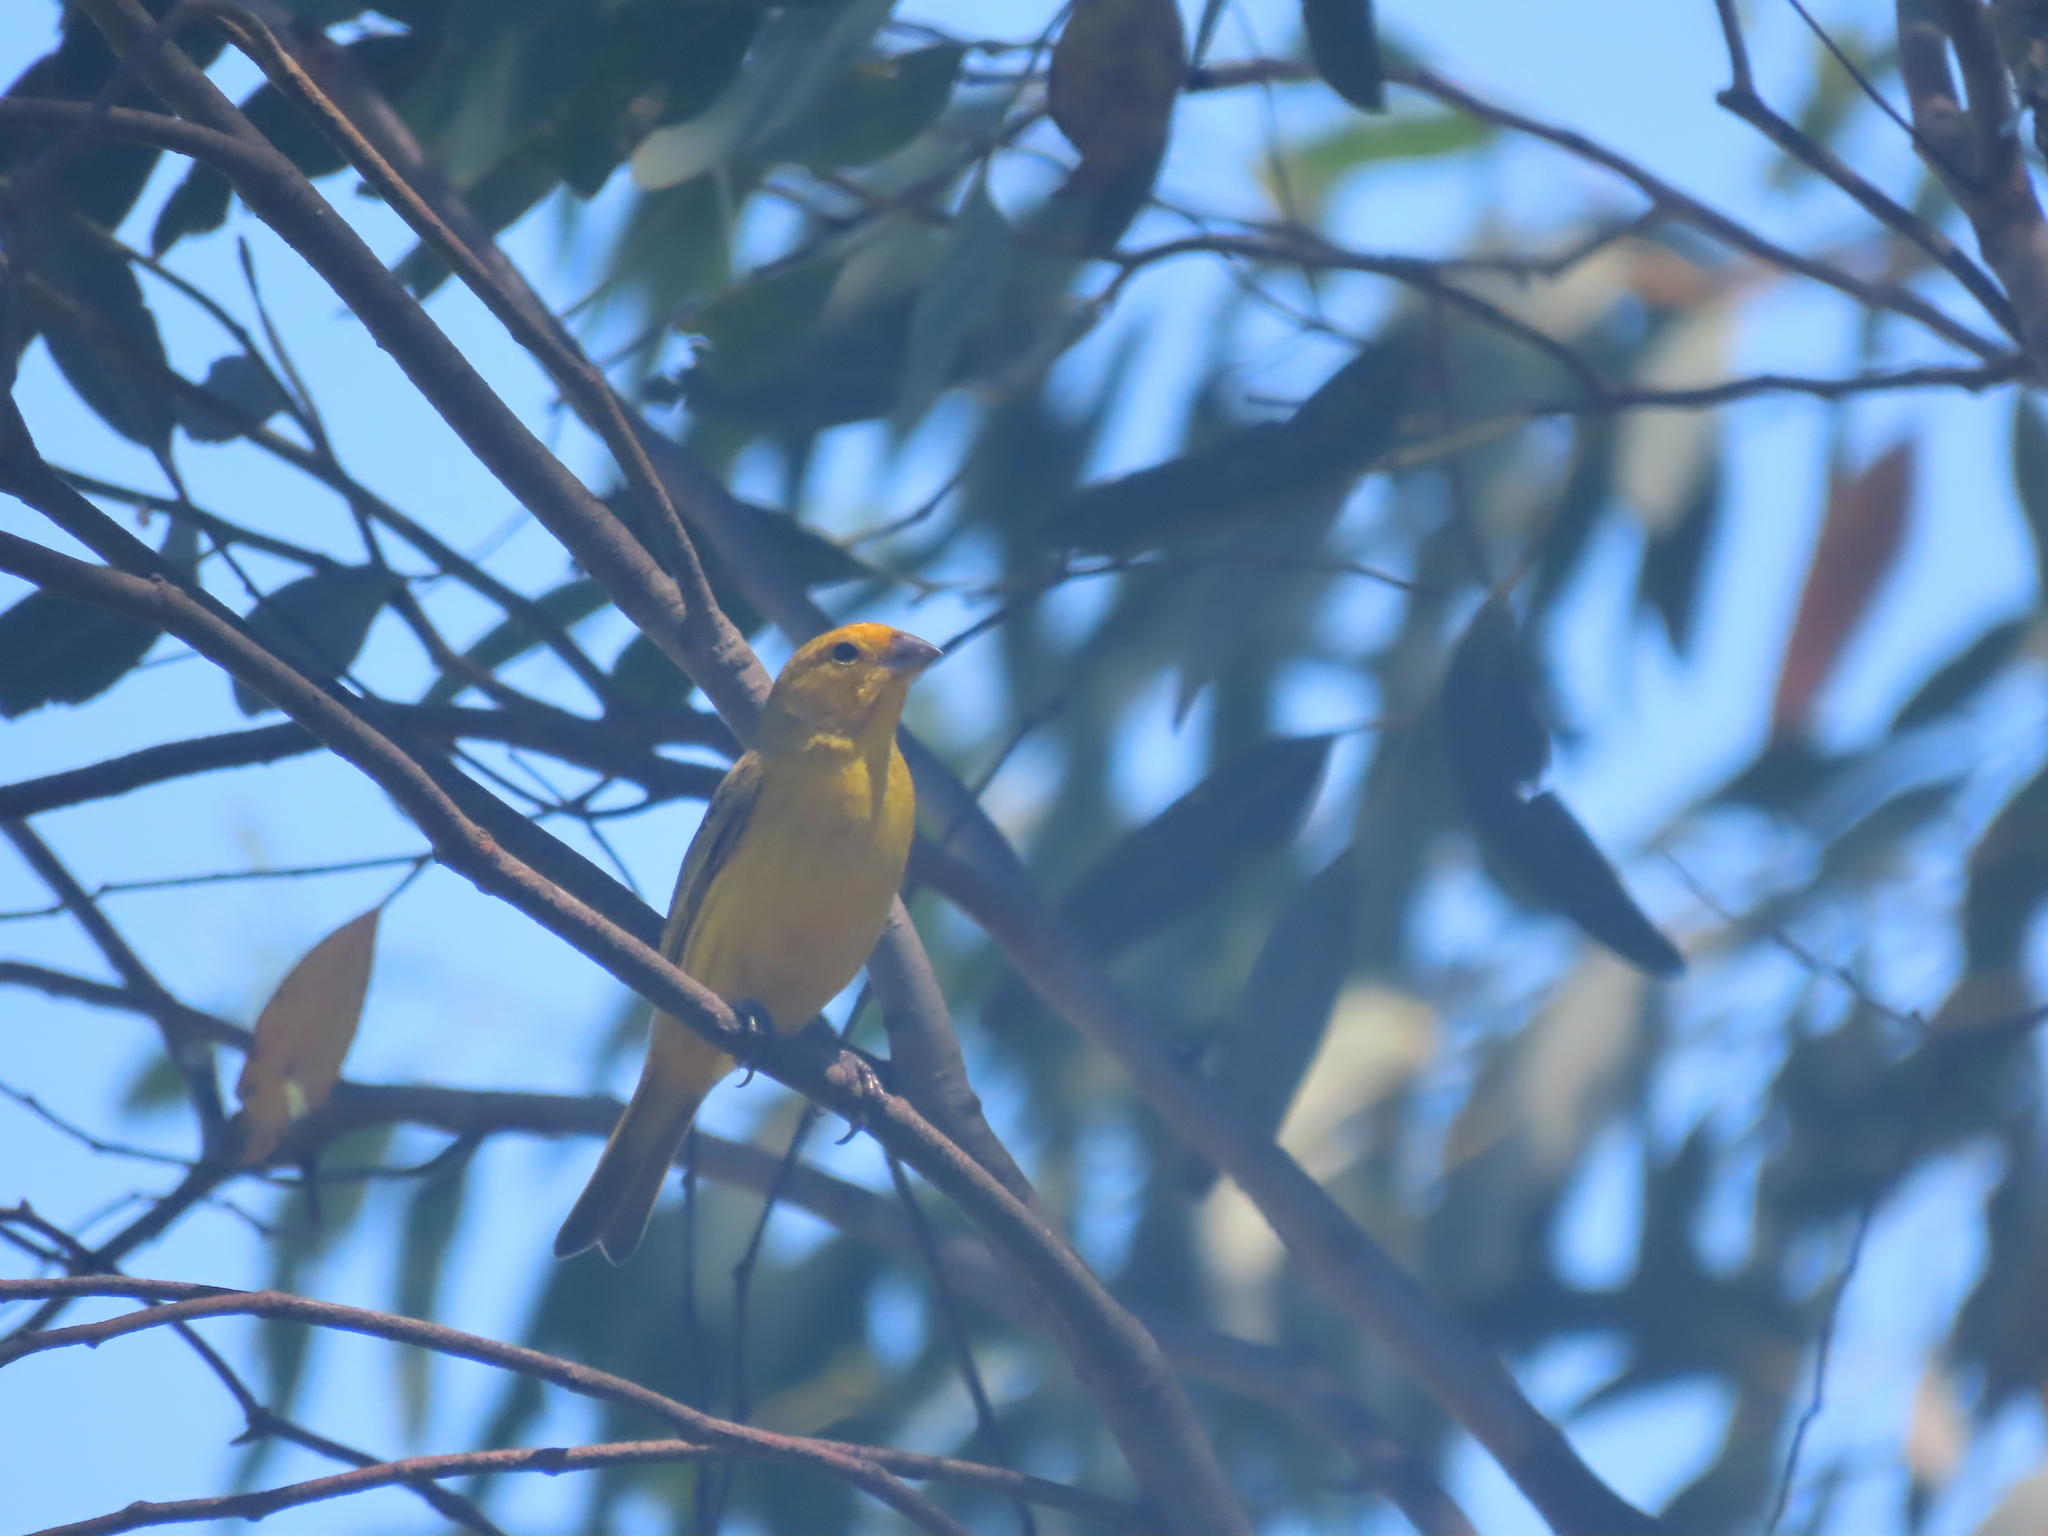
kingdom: Animalia
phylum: Chordata
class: Aves
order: Passeriformes
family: Thraupidae
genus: Sicalis
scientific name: Sicalis flaveola
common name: Saffron finch
